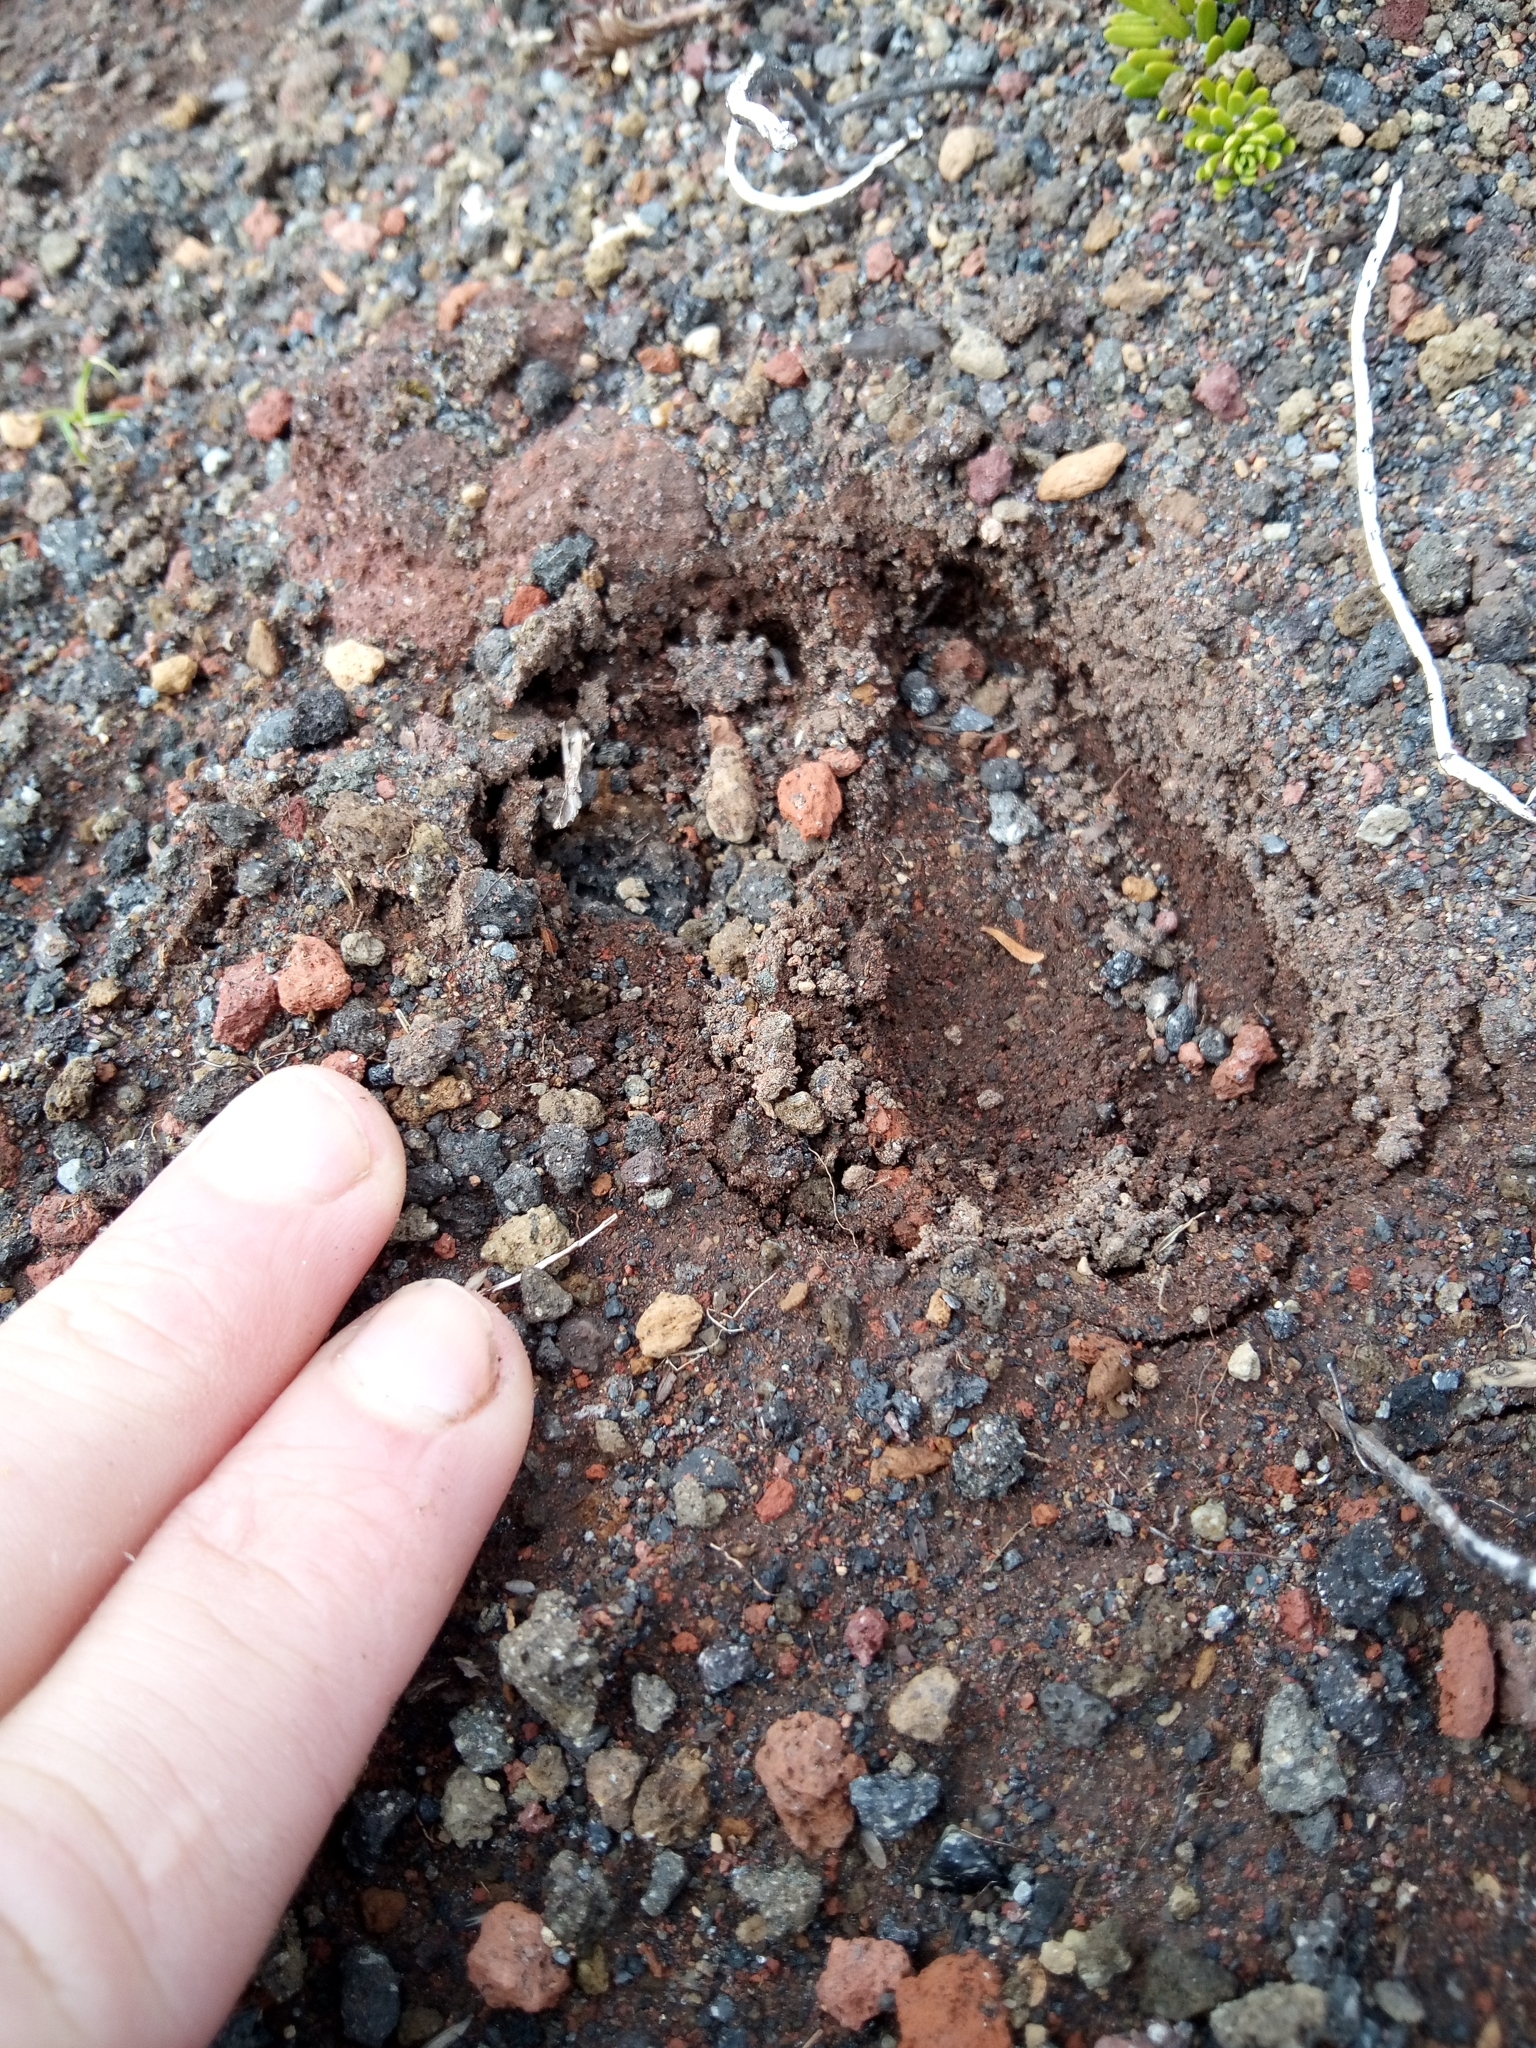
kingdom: Animalia
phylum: Chordata
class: Mammalia
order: Artiodactyla
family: Cervidae
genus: Odocoileus
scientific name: Odocoileus hemionus
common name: Mule deer
